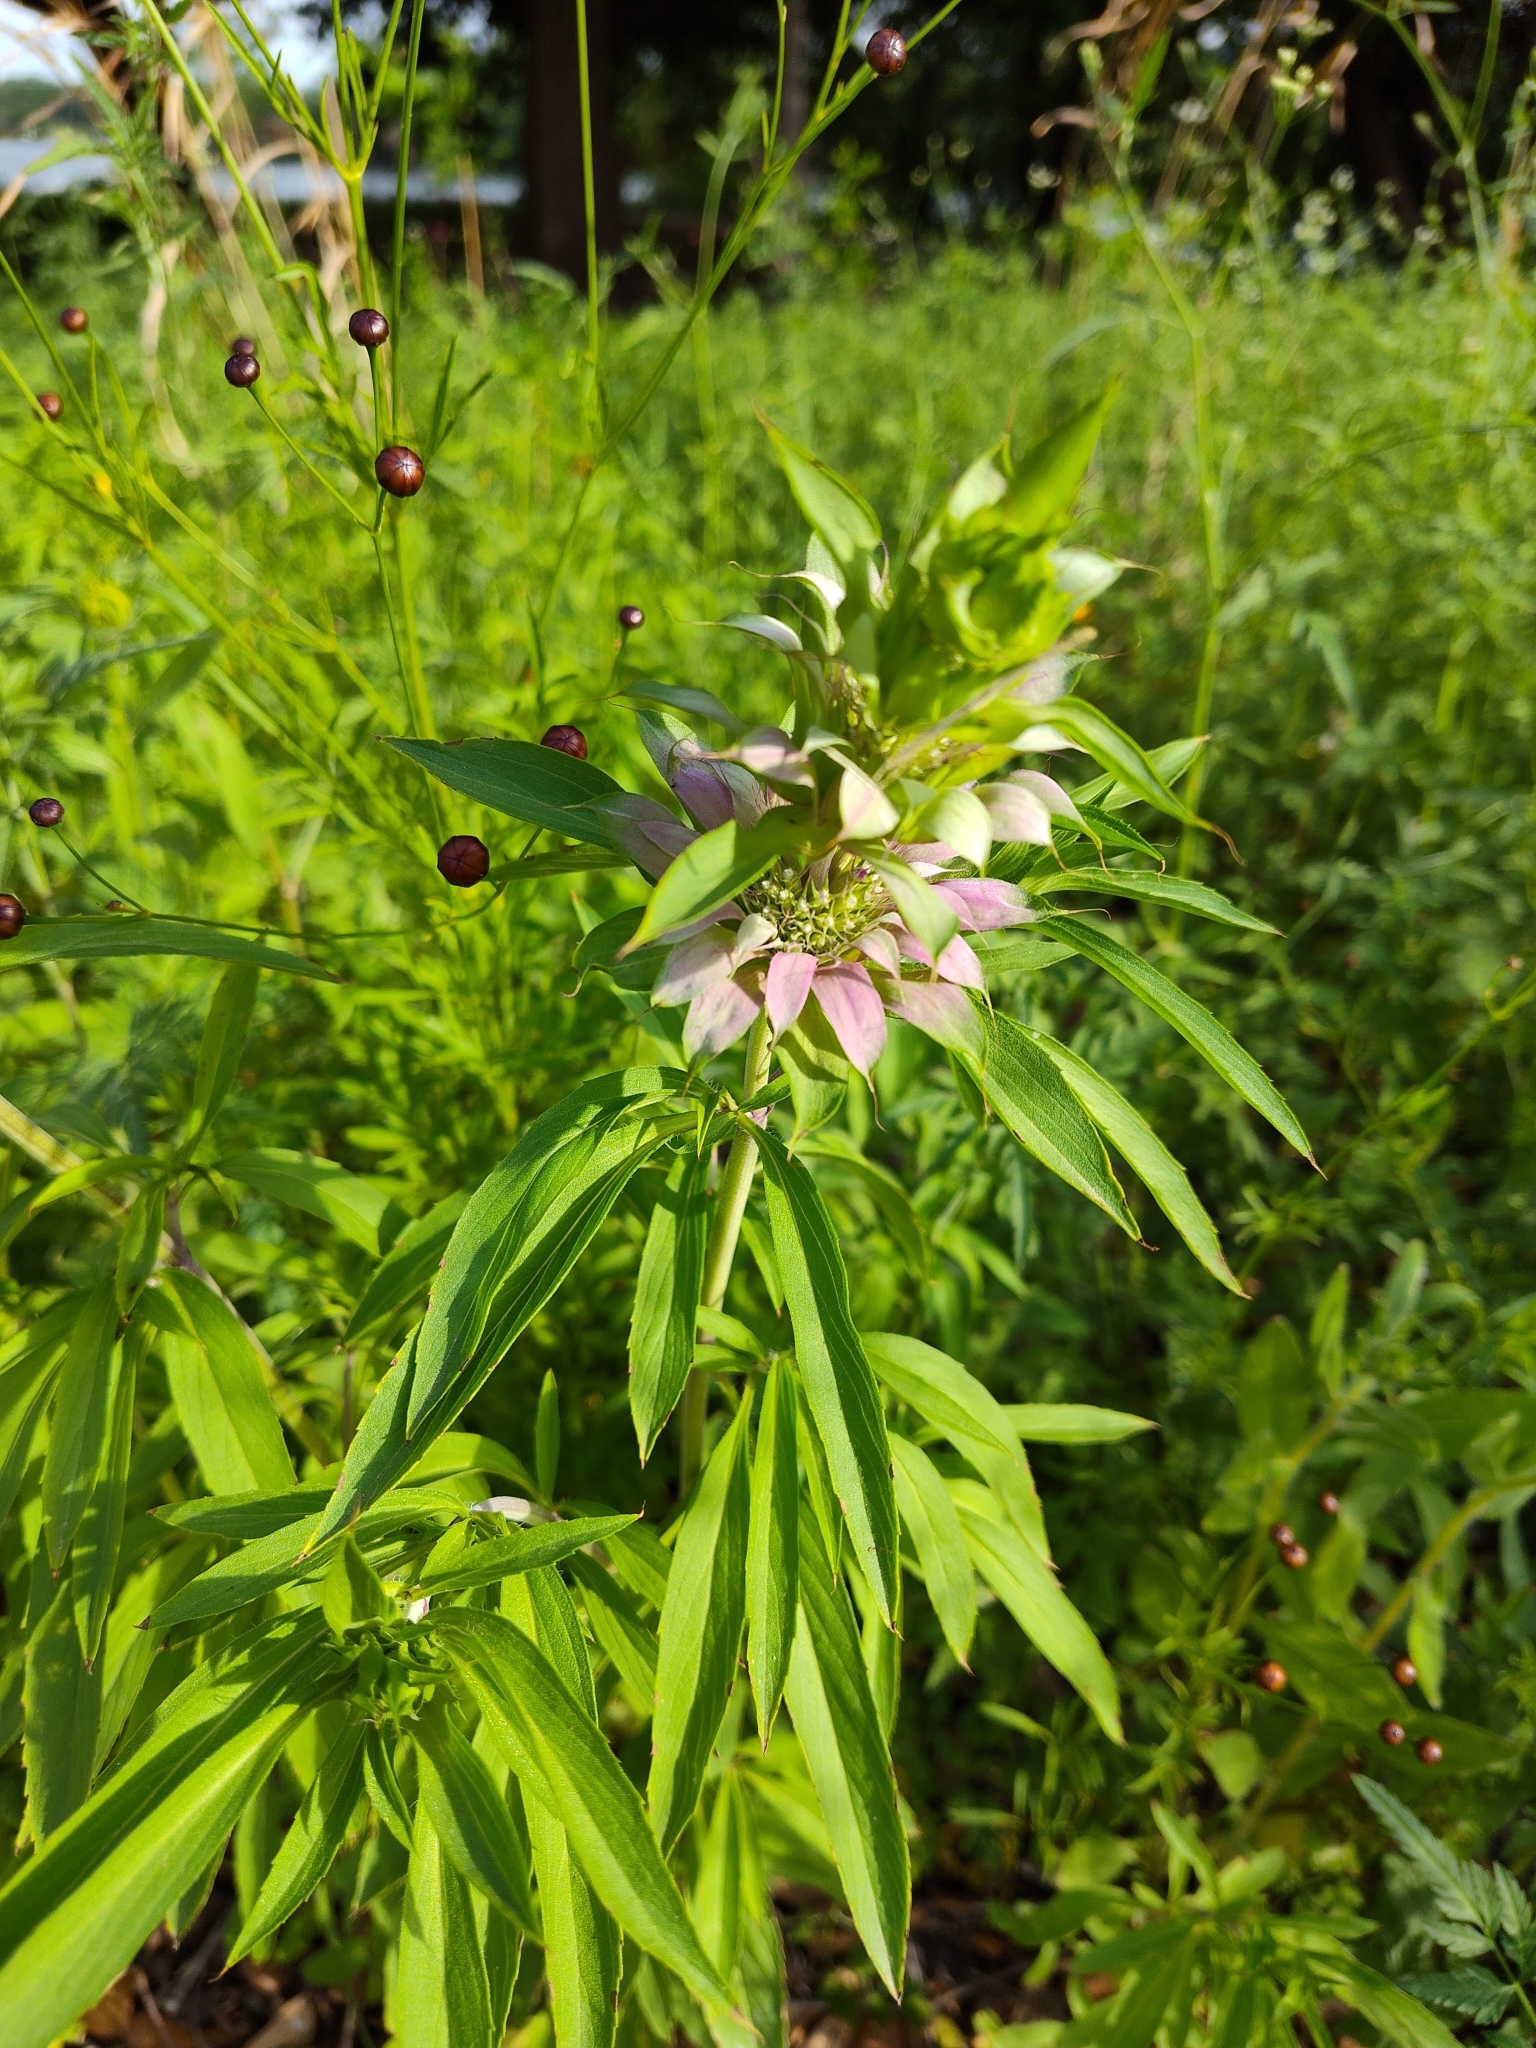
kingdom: Plantae
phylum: Tracheophyta
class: Magnoliopsida
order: Lamiales
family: Lamiaceae
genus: Monarda
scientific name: Monarda citriodora
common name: Lemon beebalm
